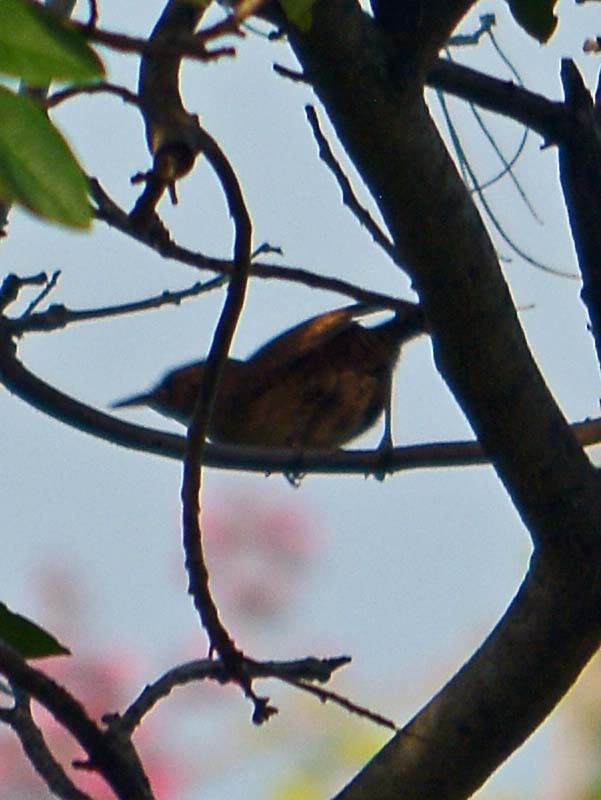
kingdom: Animalia
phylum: Chordata
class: Aves
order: Passeriformes
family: Troglodytidae
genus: Troglodytes
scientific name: Troglodytes aedon
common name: House wren
